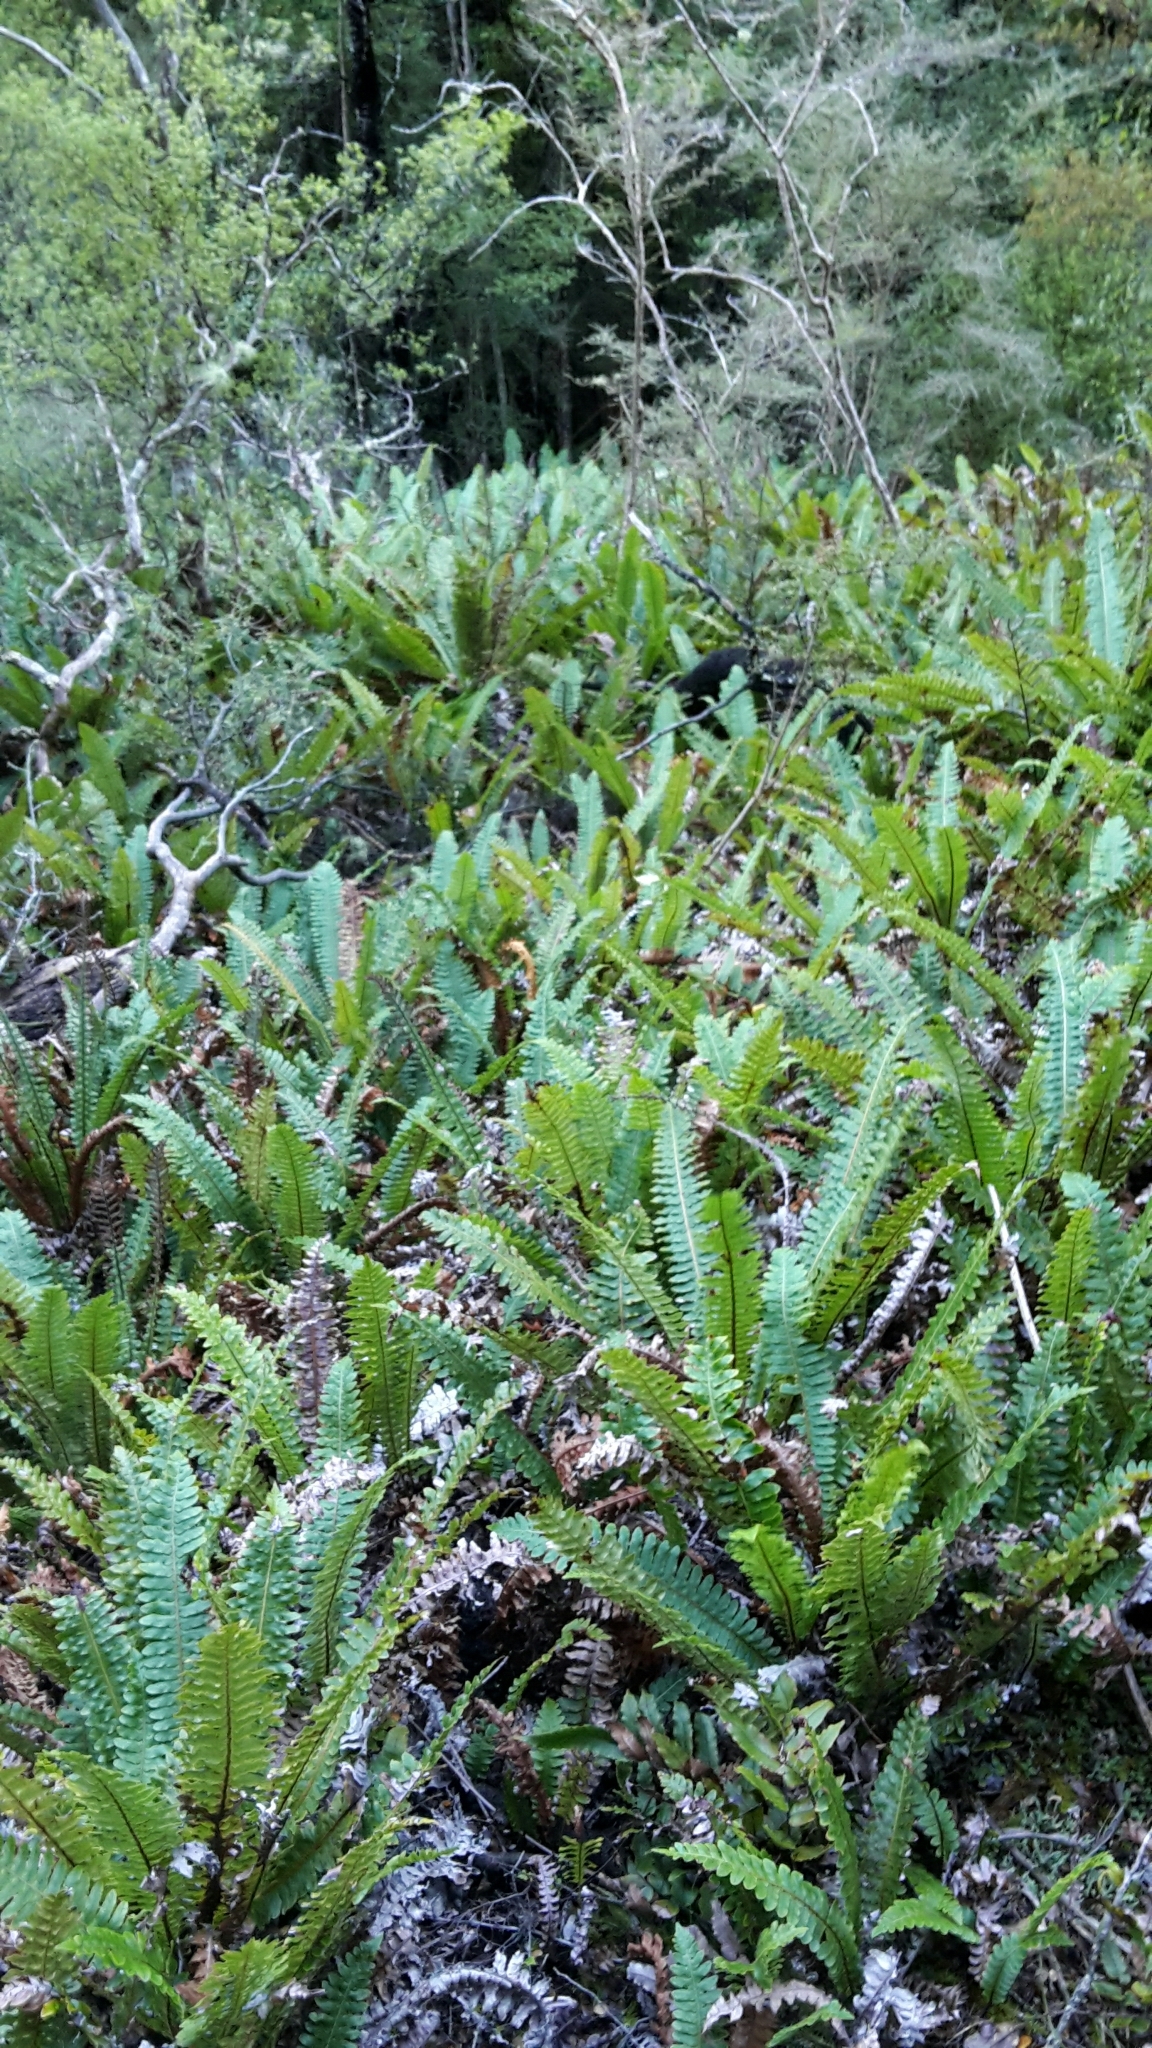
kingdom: Plantae
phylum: Tracheophyta
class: Polypodiopsida
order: Polypodiales
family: Blechnaceae
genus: Lomaria
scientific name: Lomaria discolor
